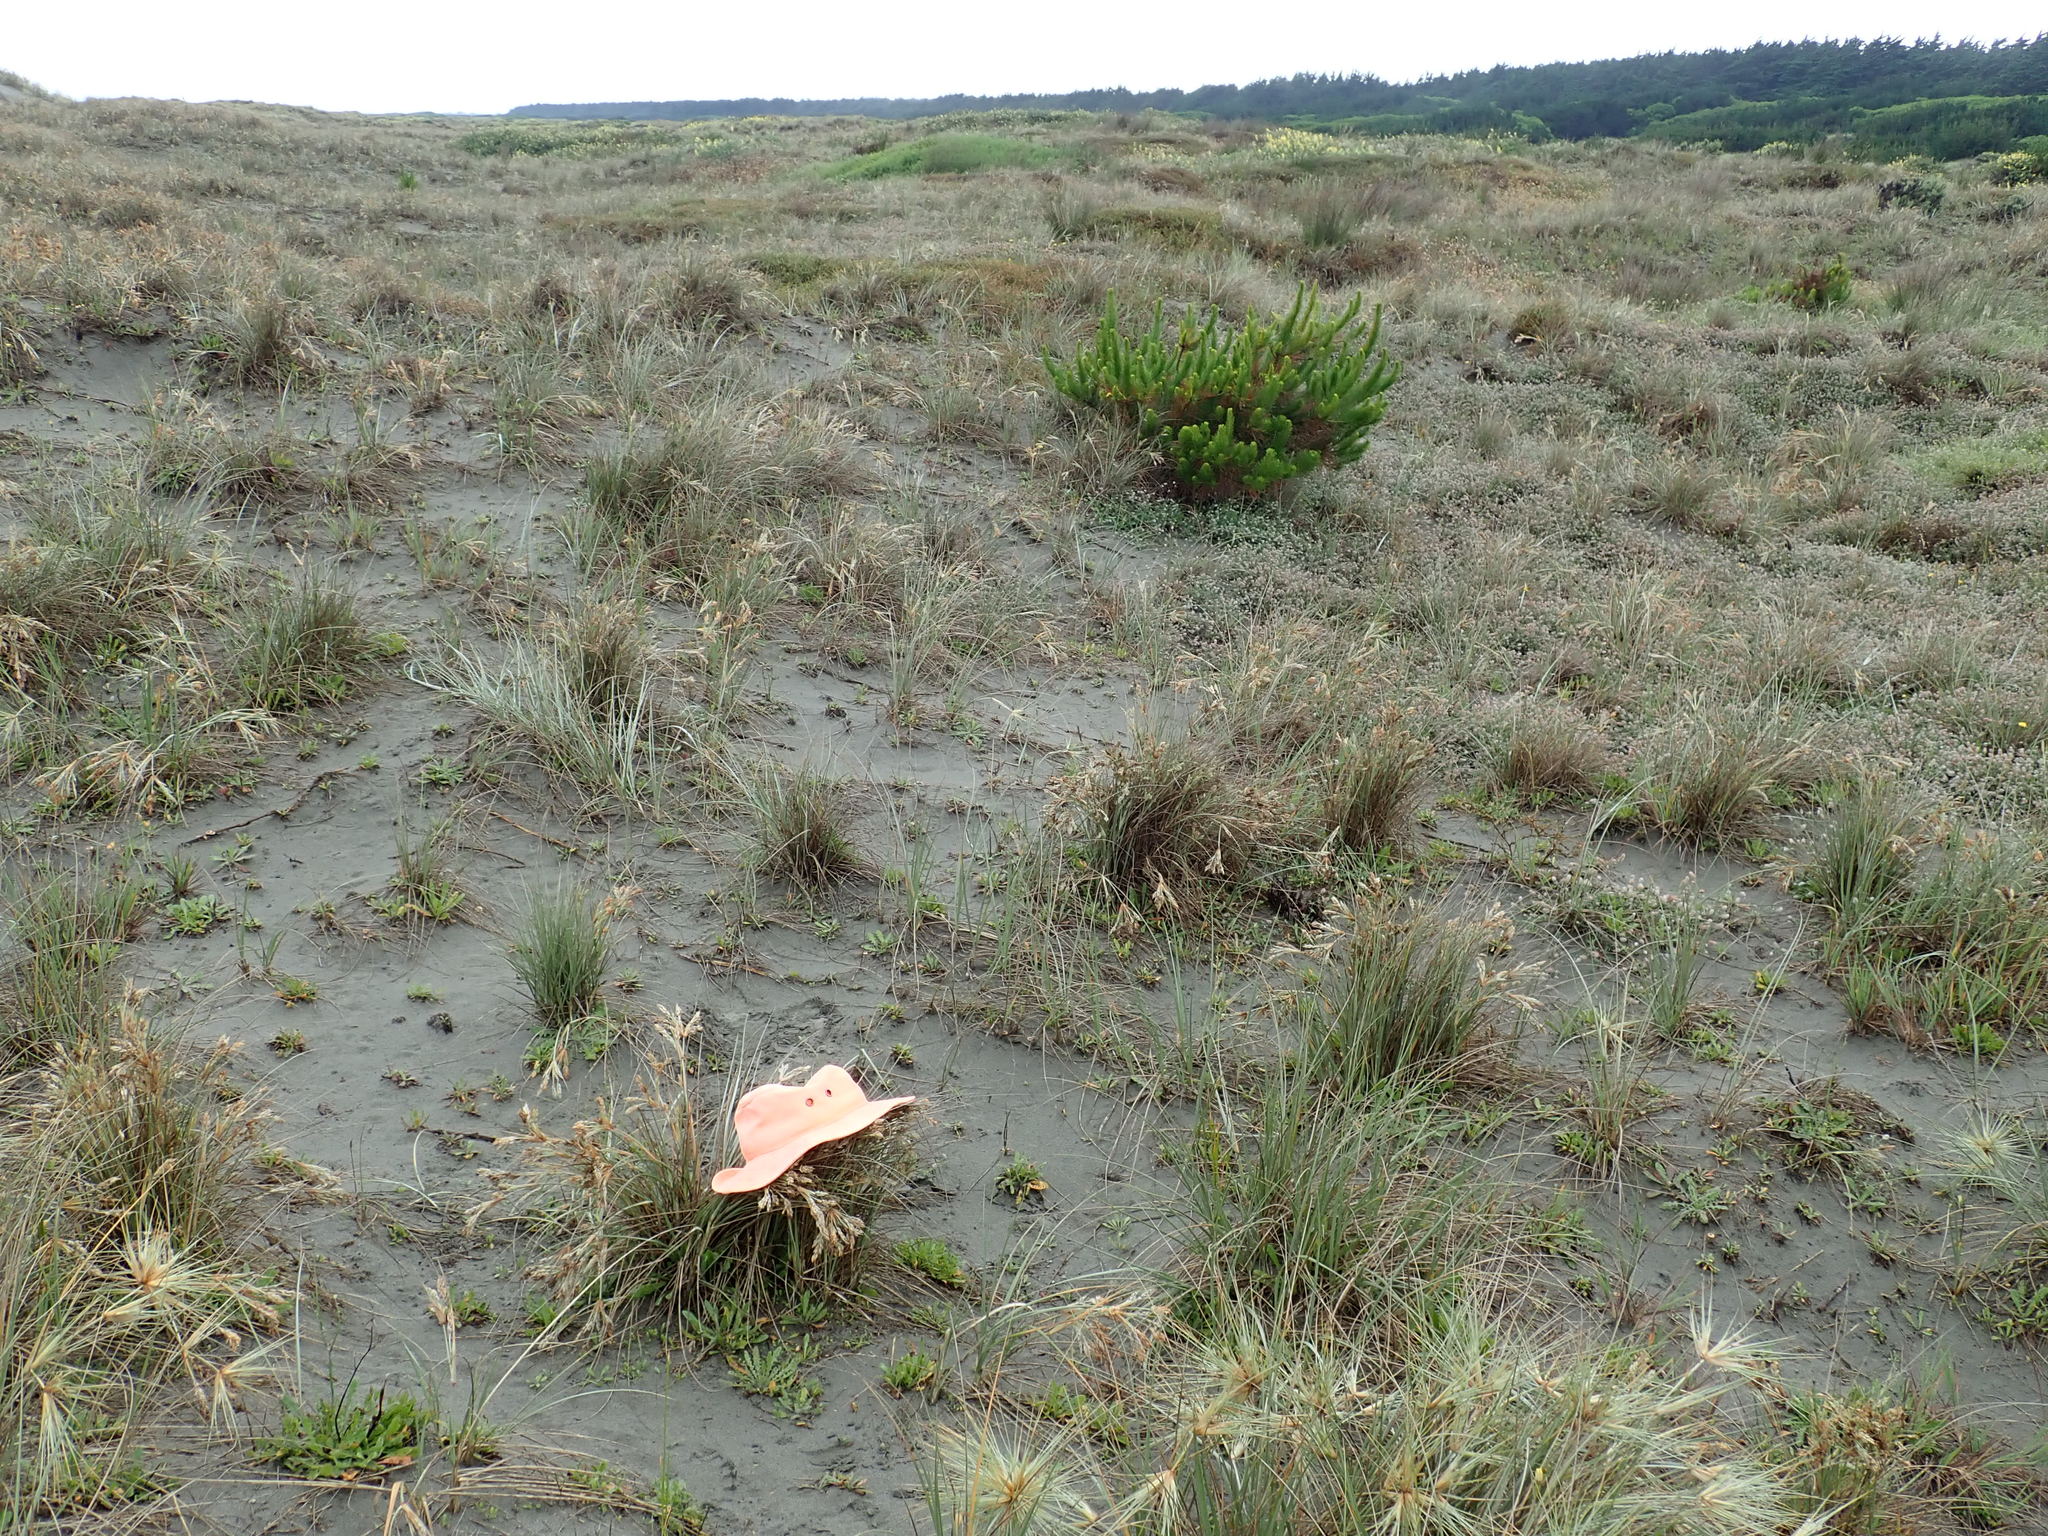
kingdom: Animalia
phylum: Arthropoda
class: Insecta
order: Coleoptera
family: Carabidae
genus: Laemostenus
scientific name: Laemostenus complanatus
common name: Cosmopolitan ground beetle
